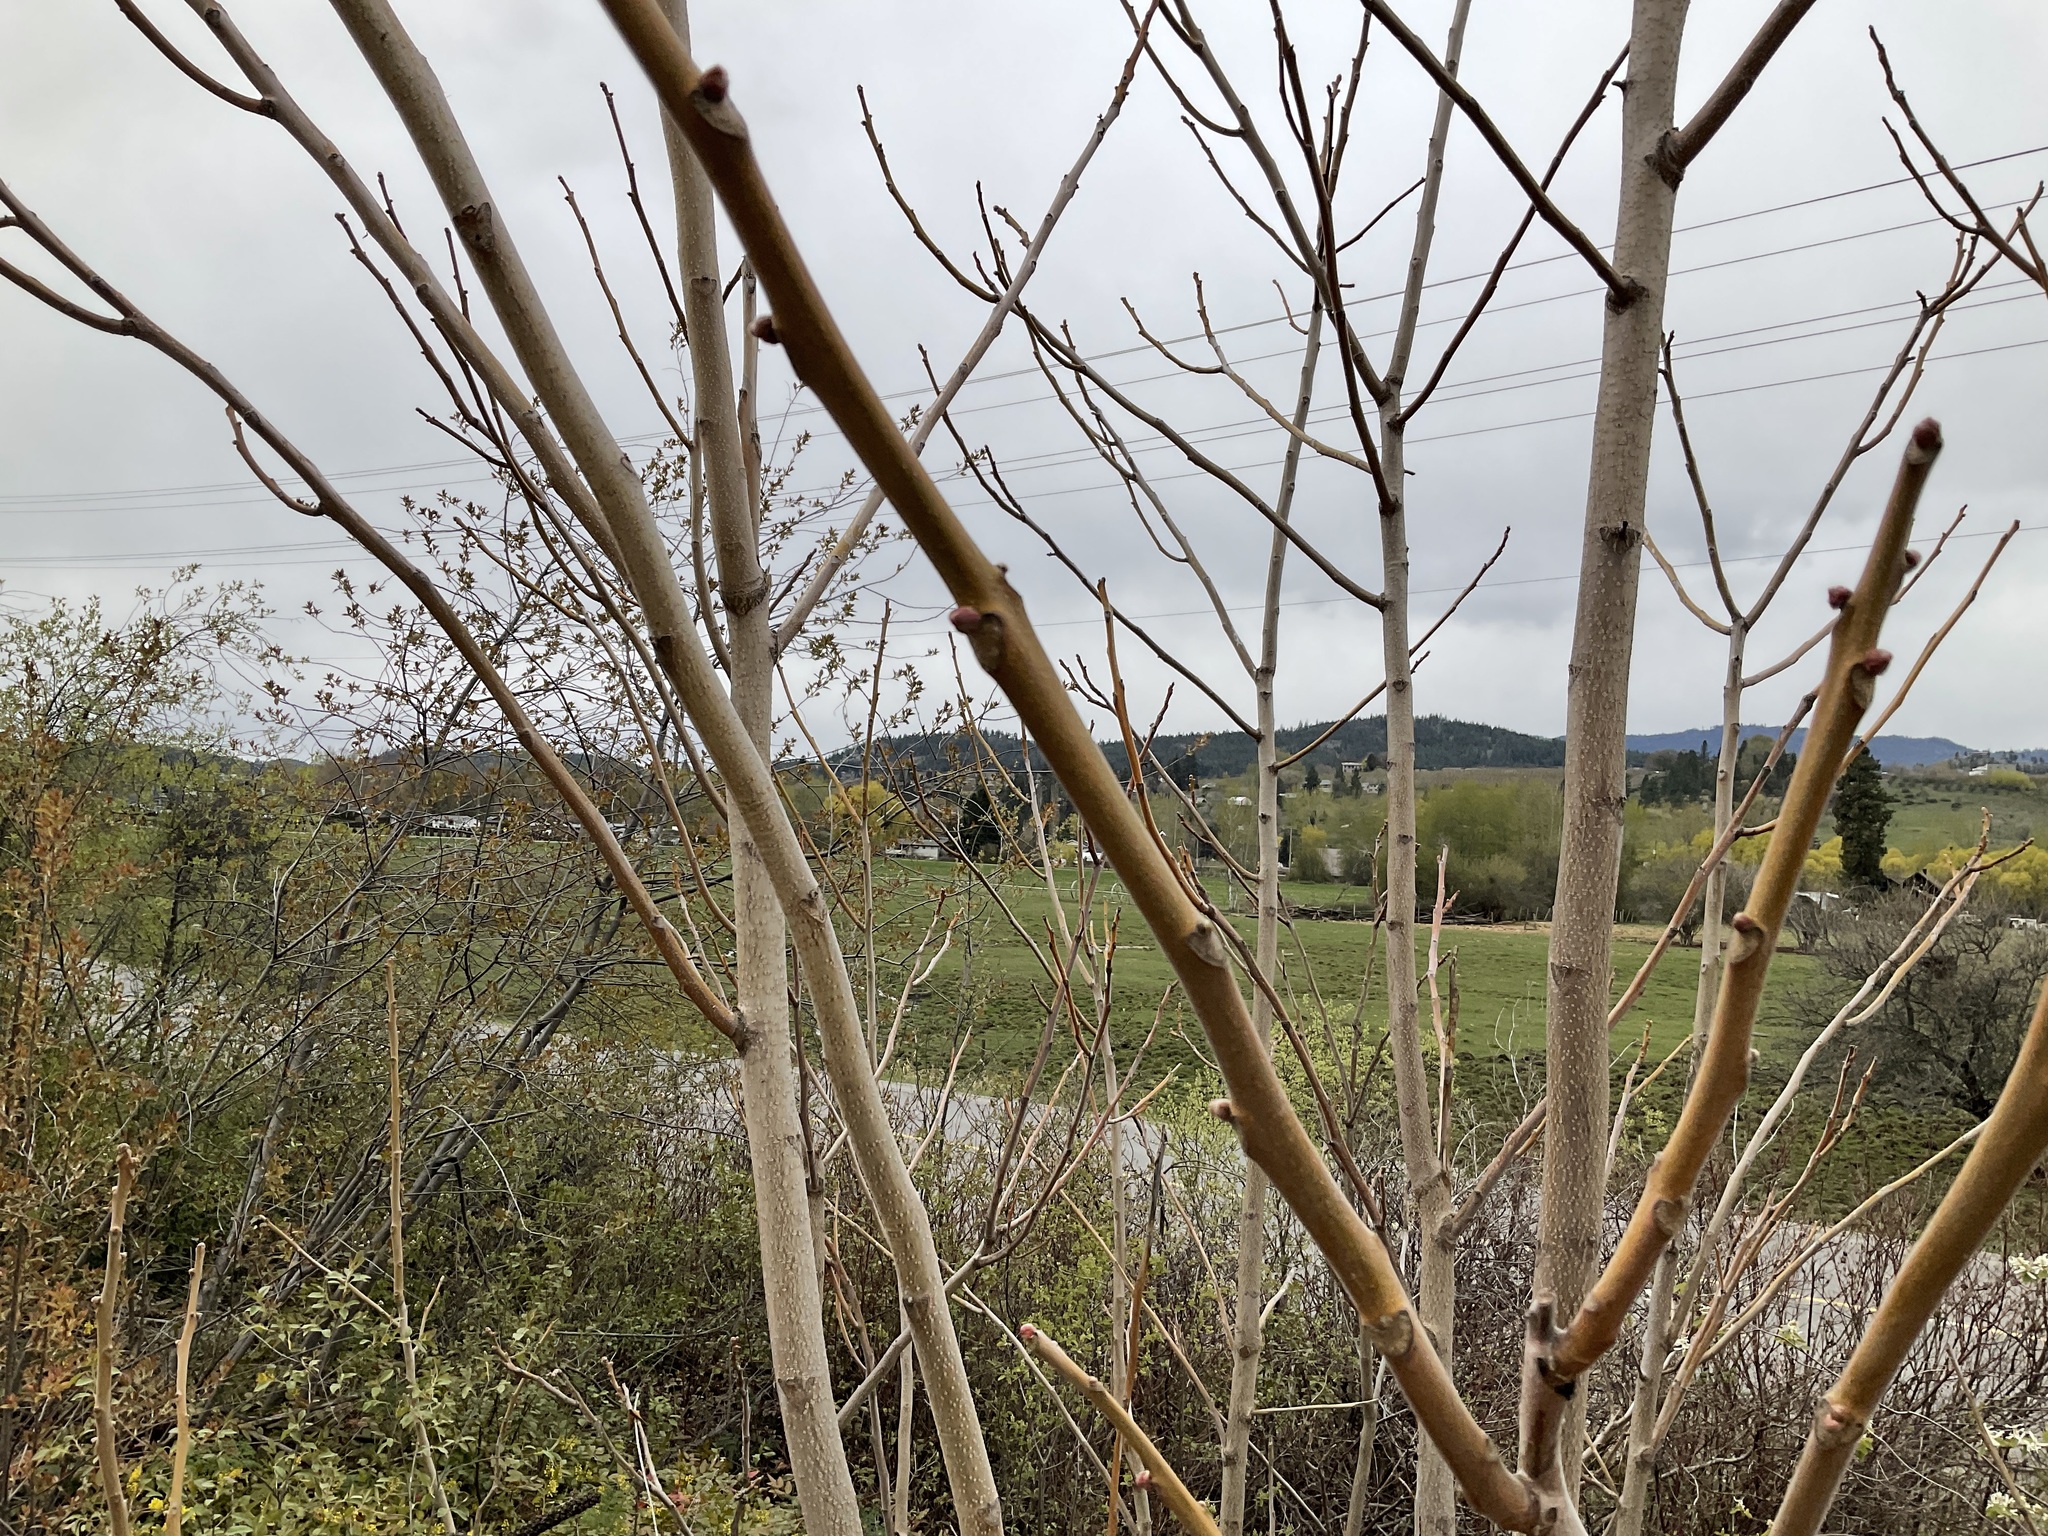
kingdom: Plantae
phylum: Tracheophyta
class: Magnoliopsida
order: Sapindales
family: Simaroubaceae
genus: Ailanthus
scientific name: Ailanthus altissima
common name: Tree-of-heaven
